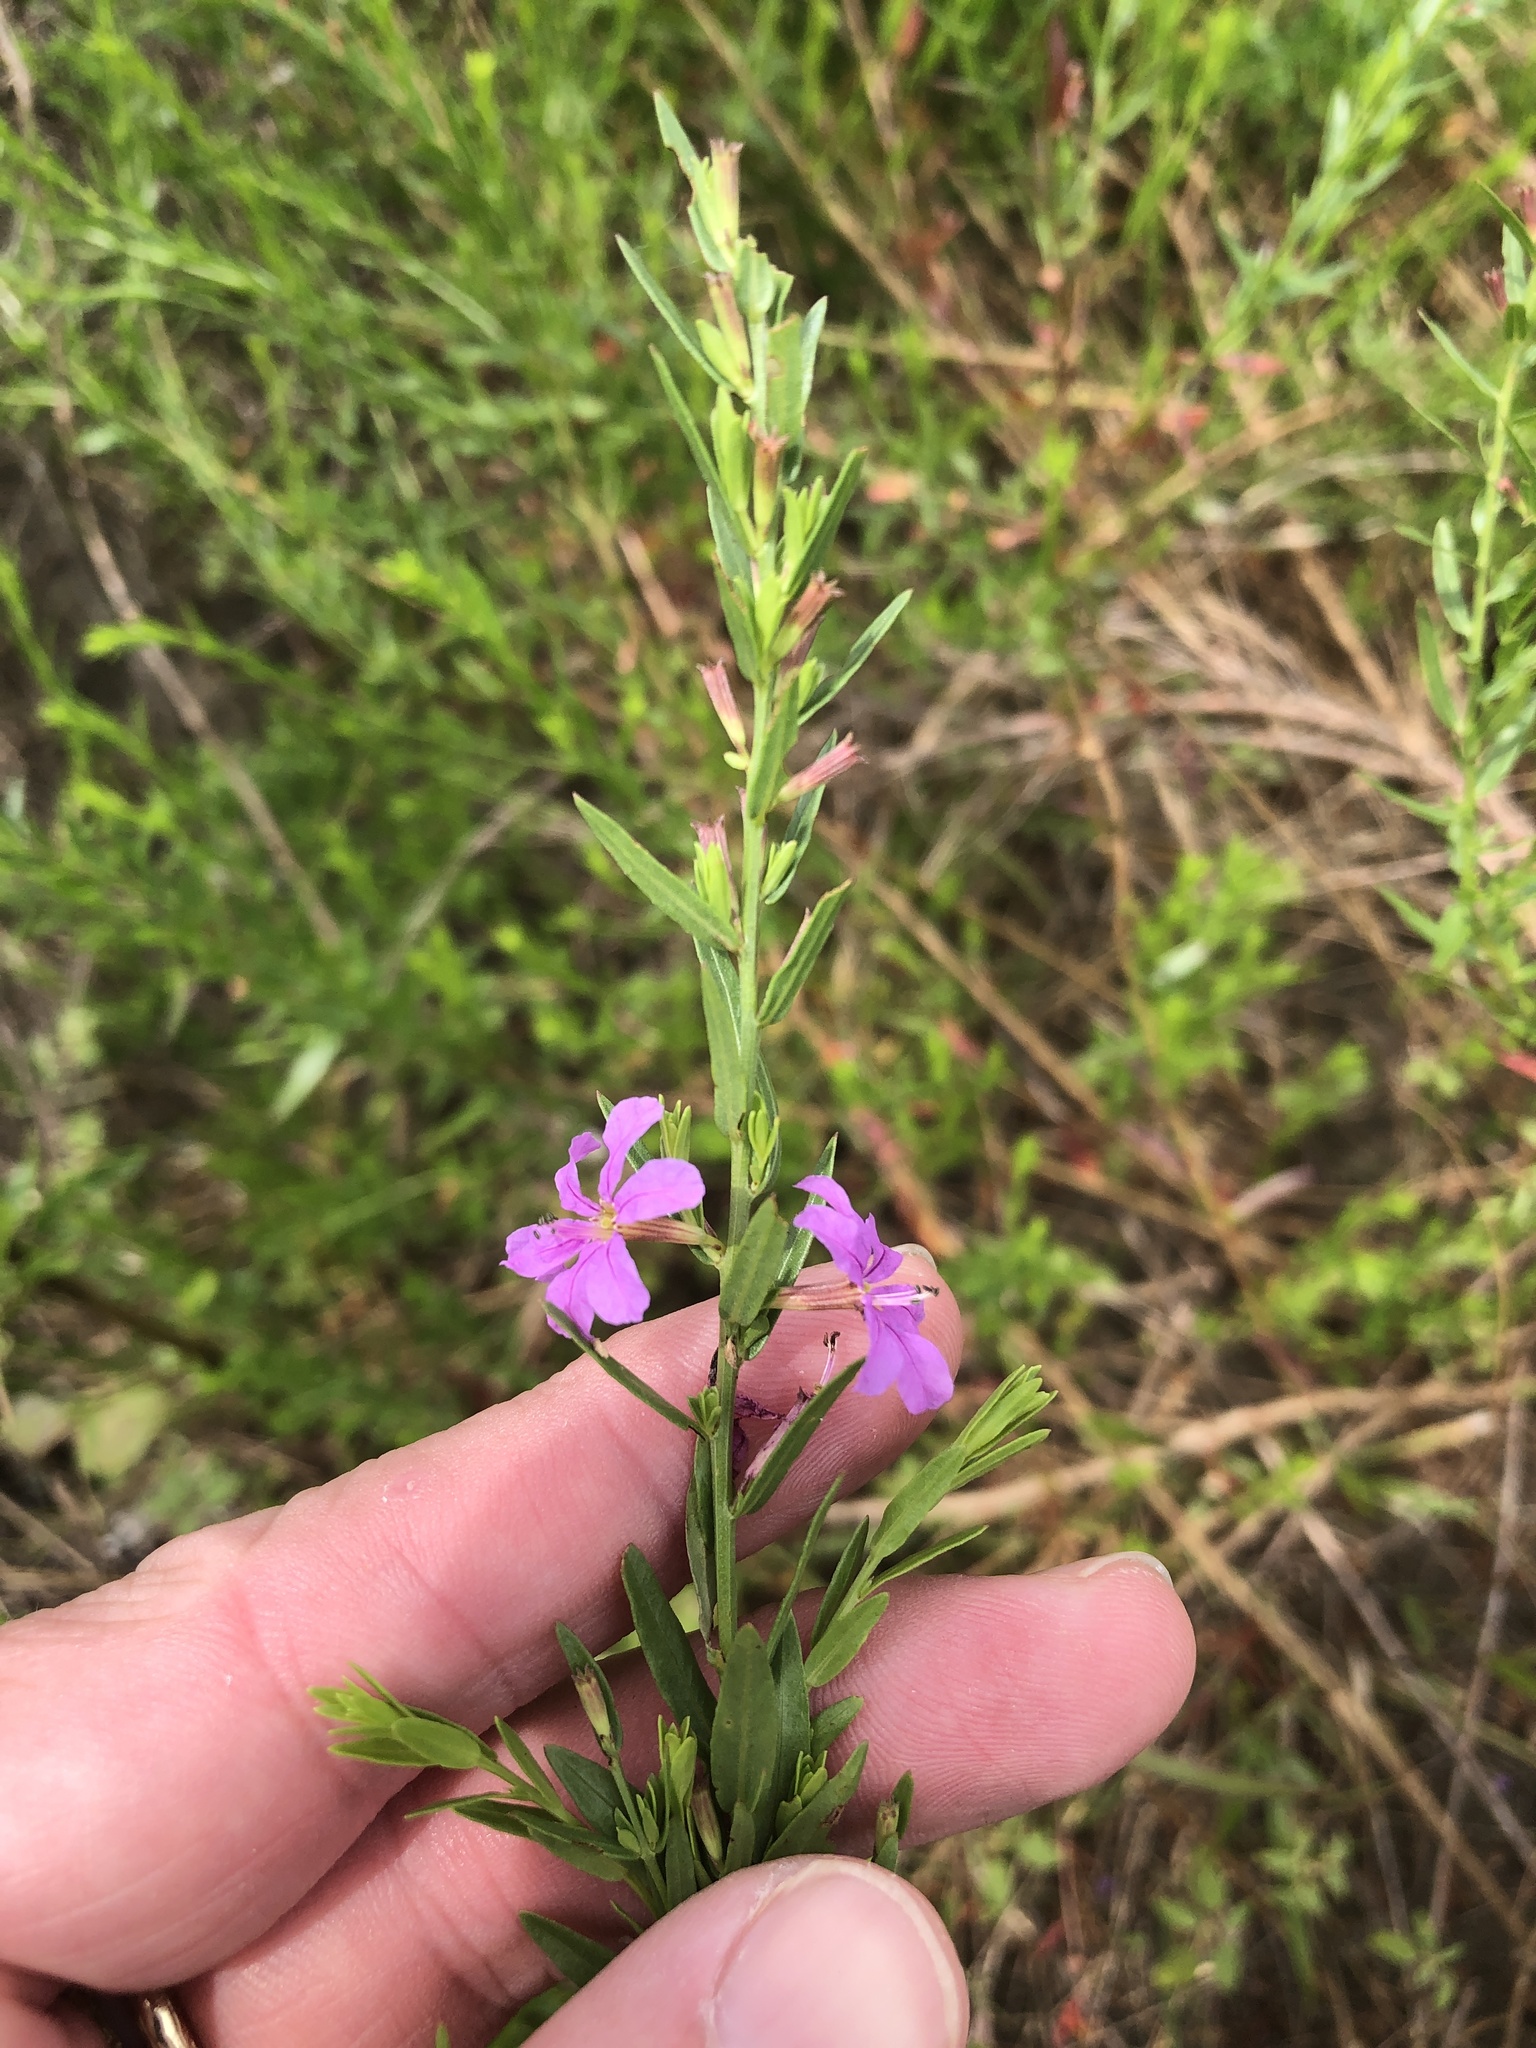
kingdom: Plantae
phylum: Tracheophyta
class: Magnoliopsida
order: Myrtales
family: Lythraceae
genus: Lythrum
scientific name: Lythrum alatum
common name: Winged loosestrife
